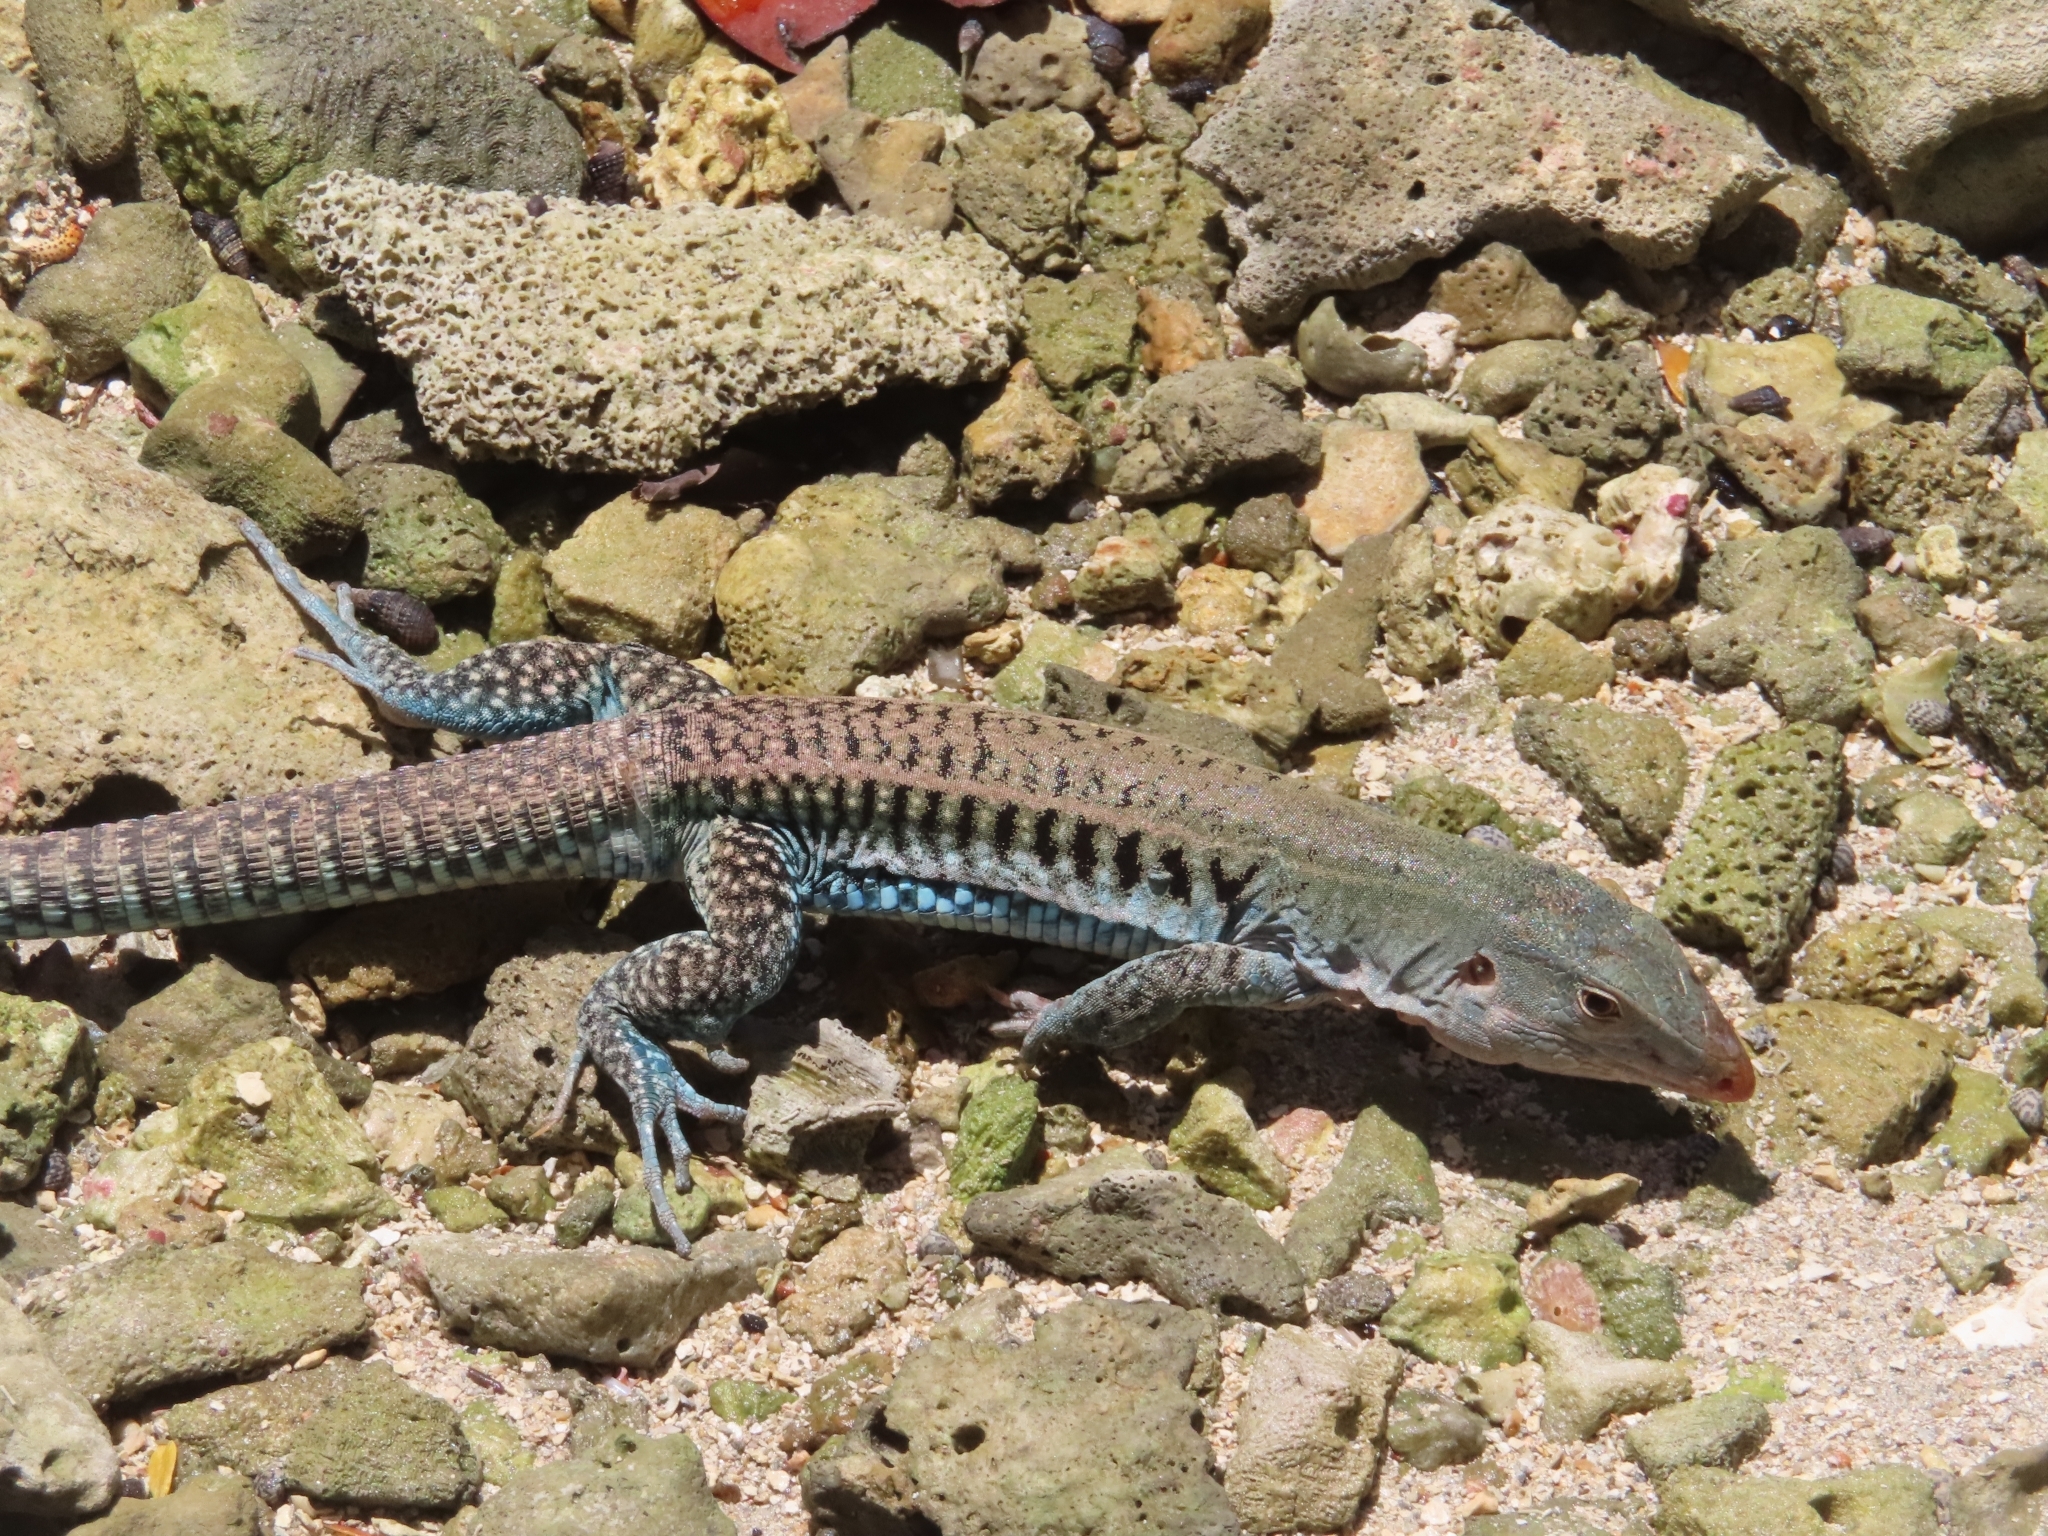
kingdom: Animalia
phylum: Chordata
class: Squamata
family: Teiidae
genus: Pholidoscelis
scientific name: Pholidoscelis exsul
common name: Common puerto rican ameiva
